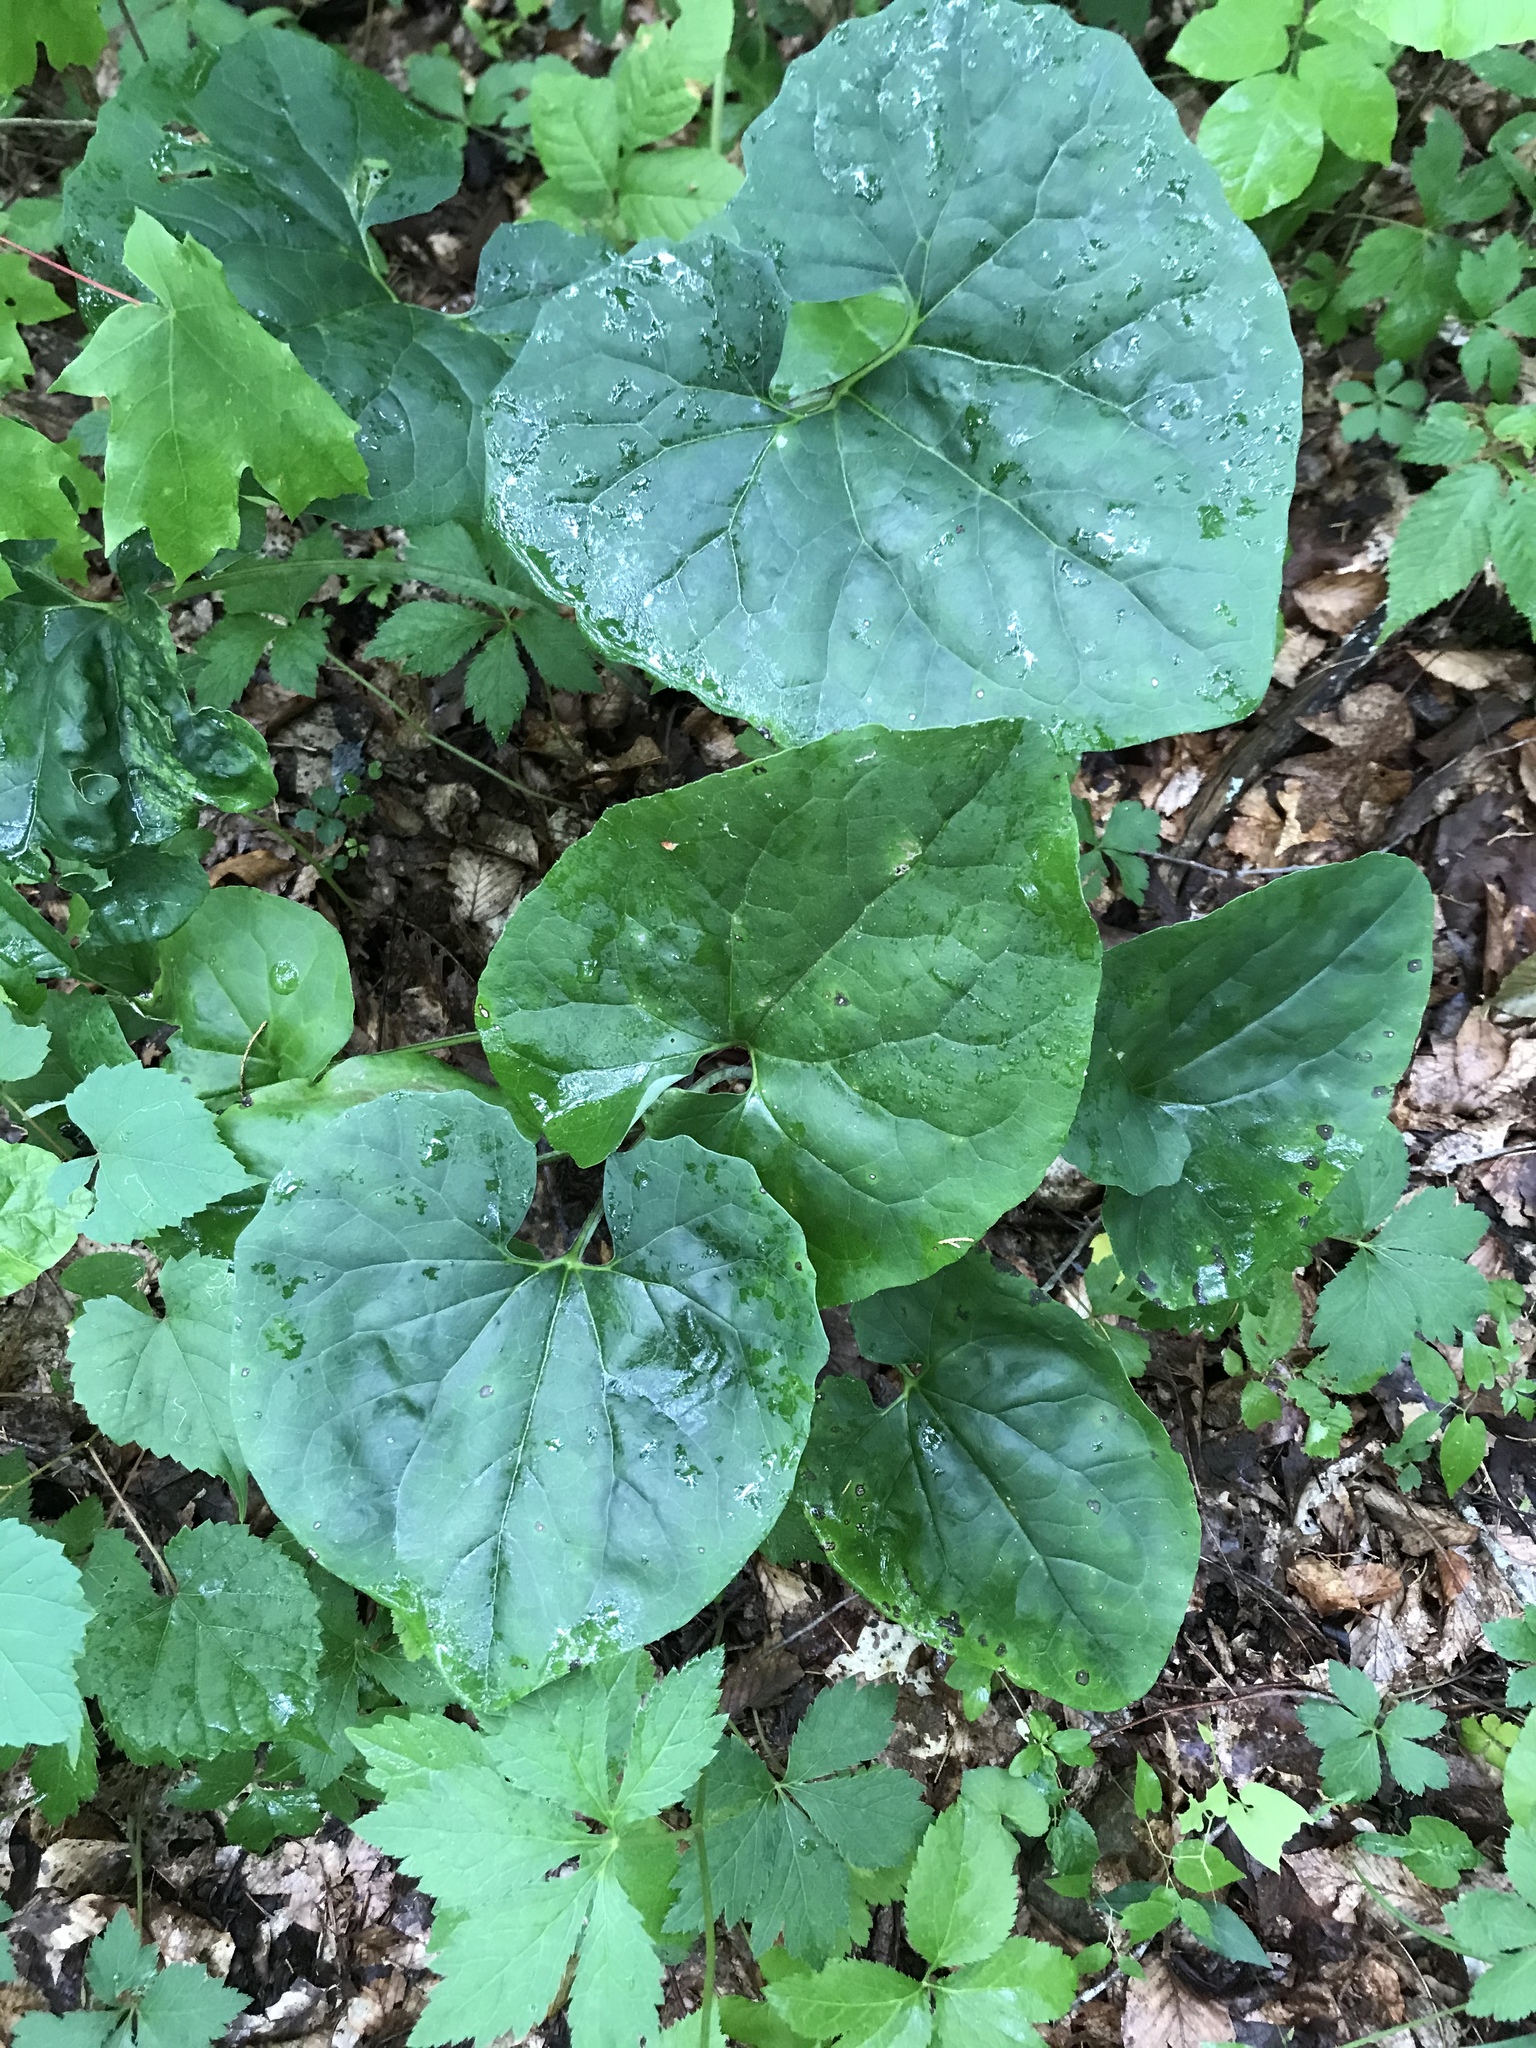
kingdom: Plantae
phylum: Tracheophyta
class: Magnoliopsida
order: Piperales
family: Aristolochiaceae
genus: Asarum
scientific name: Asarum canadense
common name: Wild ginger
